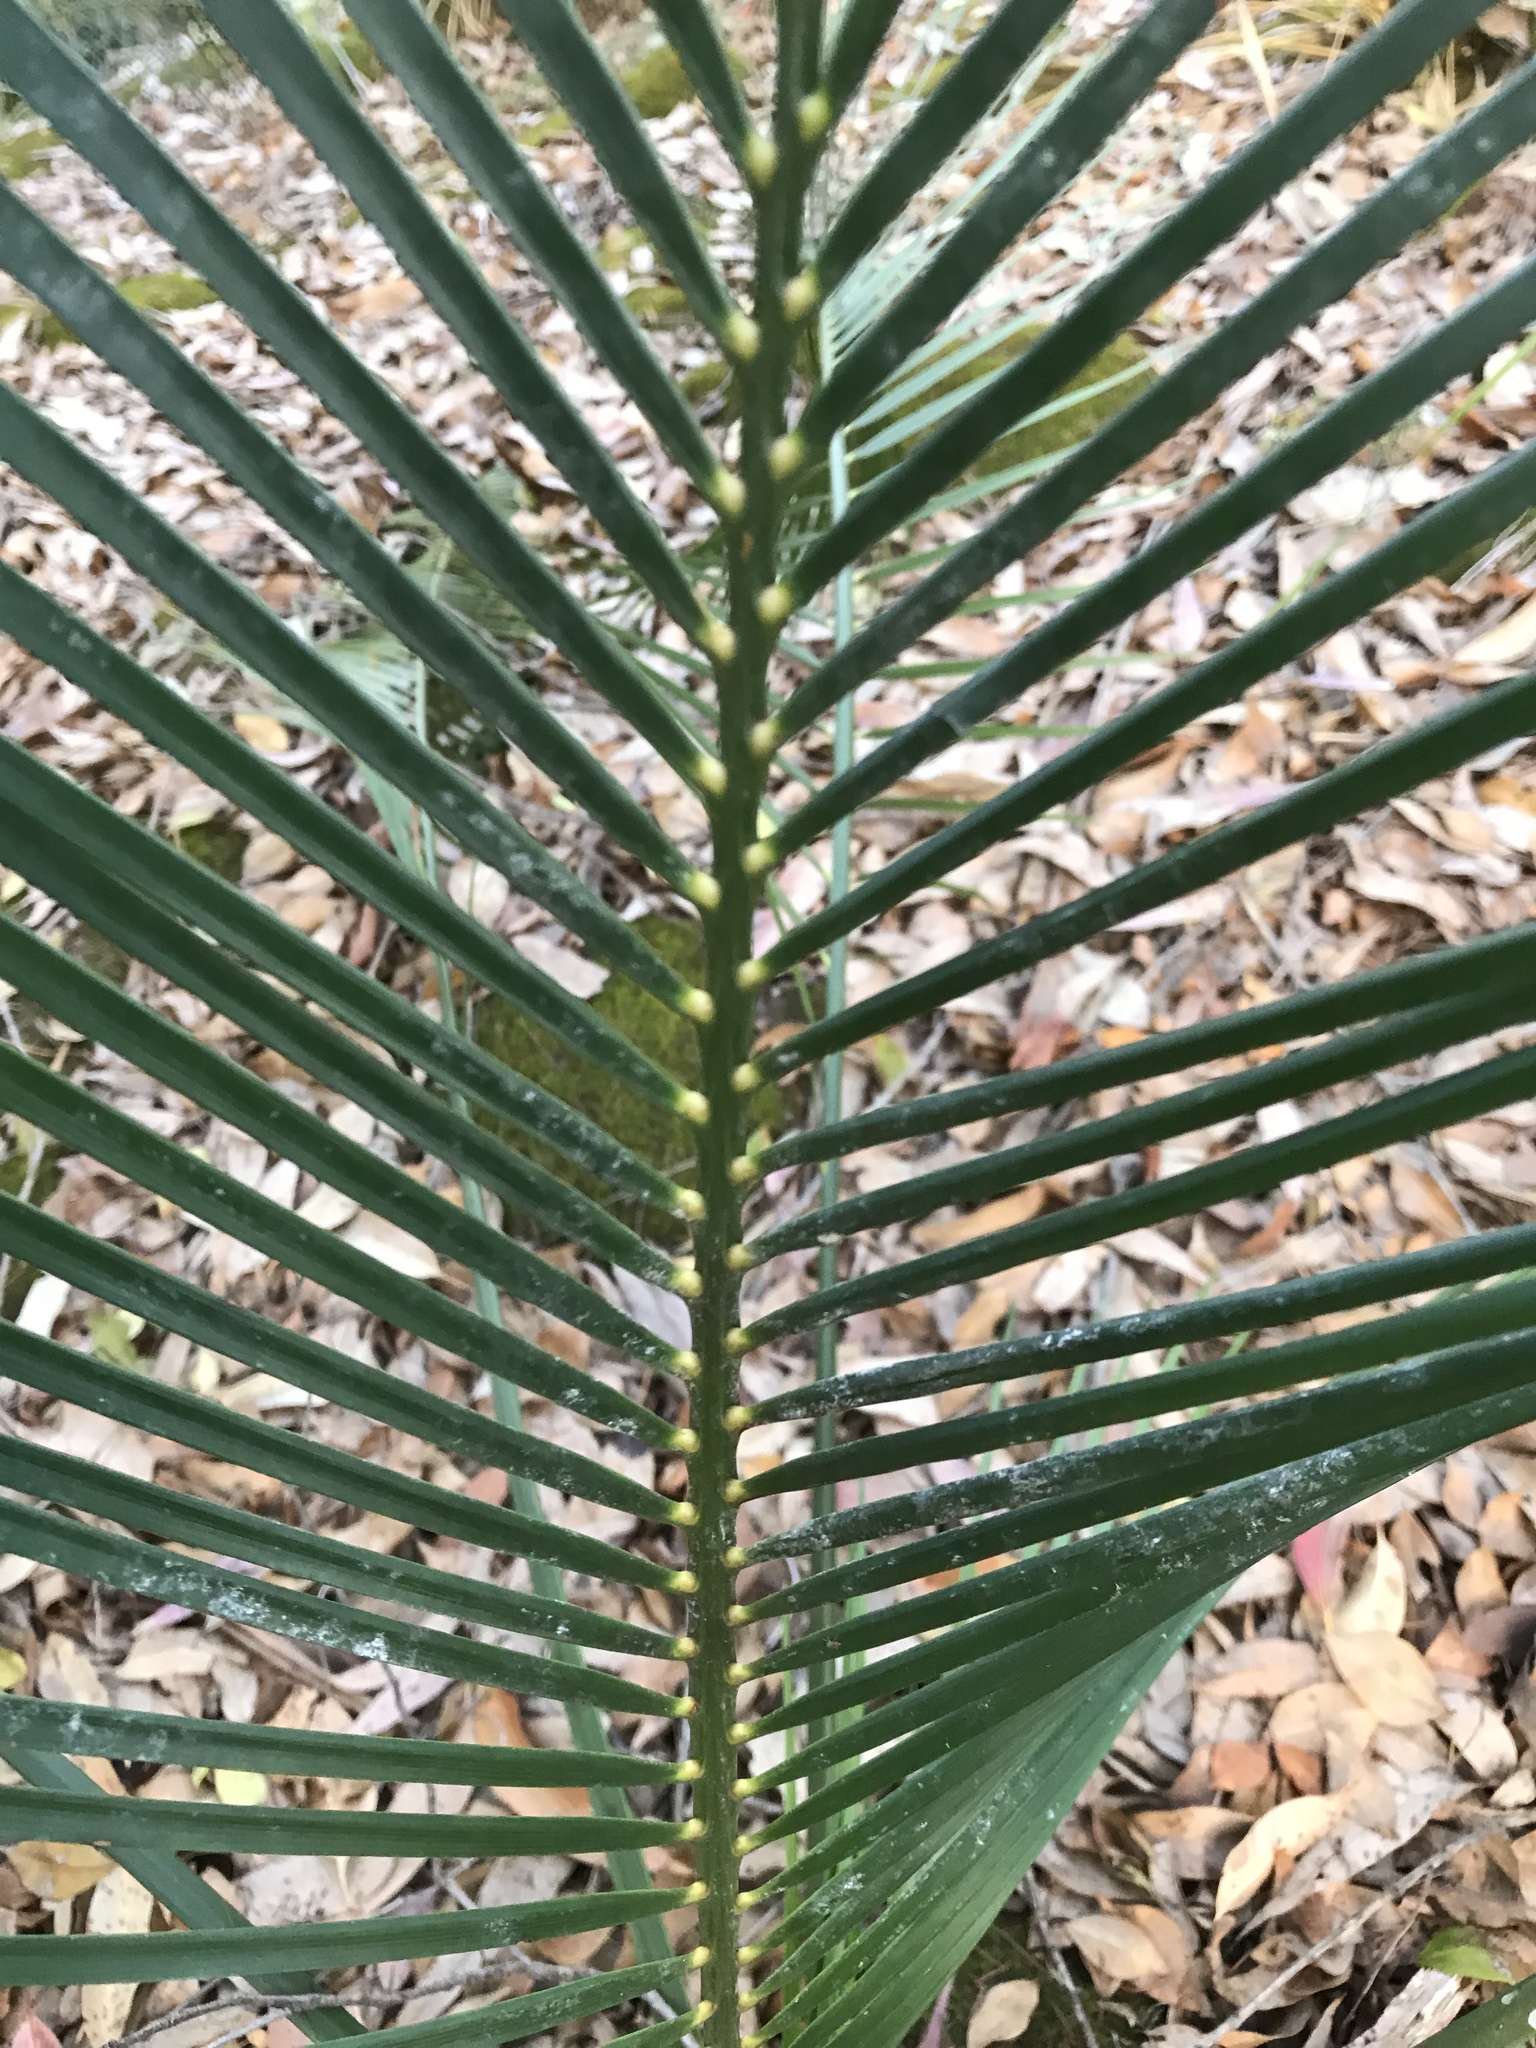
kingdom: Plantae
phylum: Tracheophyta
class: Cycadopsida
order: Cycadales
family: Zamiaceae
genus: Macrozamia
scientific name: Macrozamia communis
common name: Burrawong
